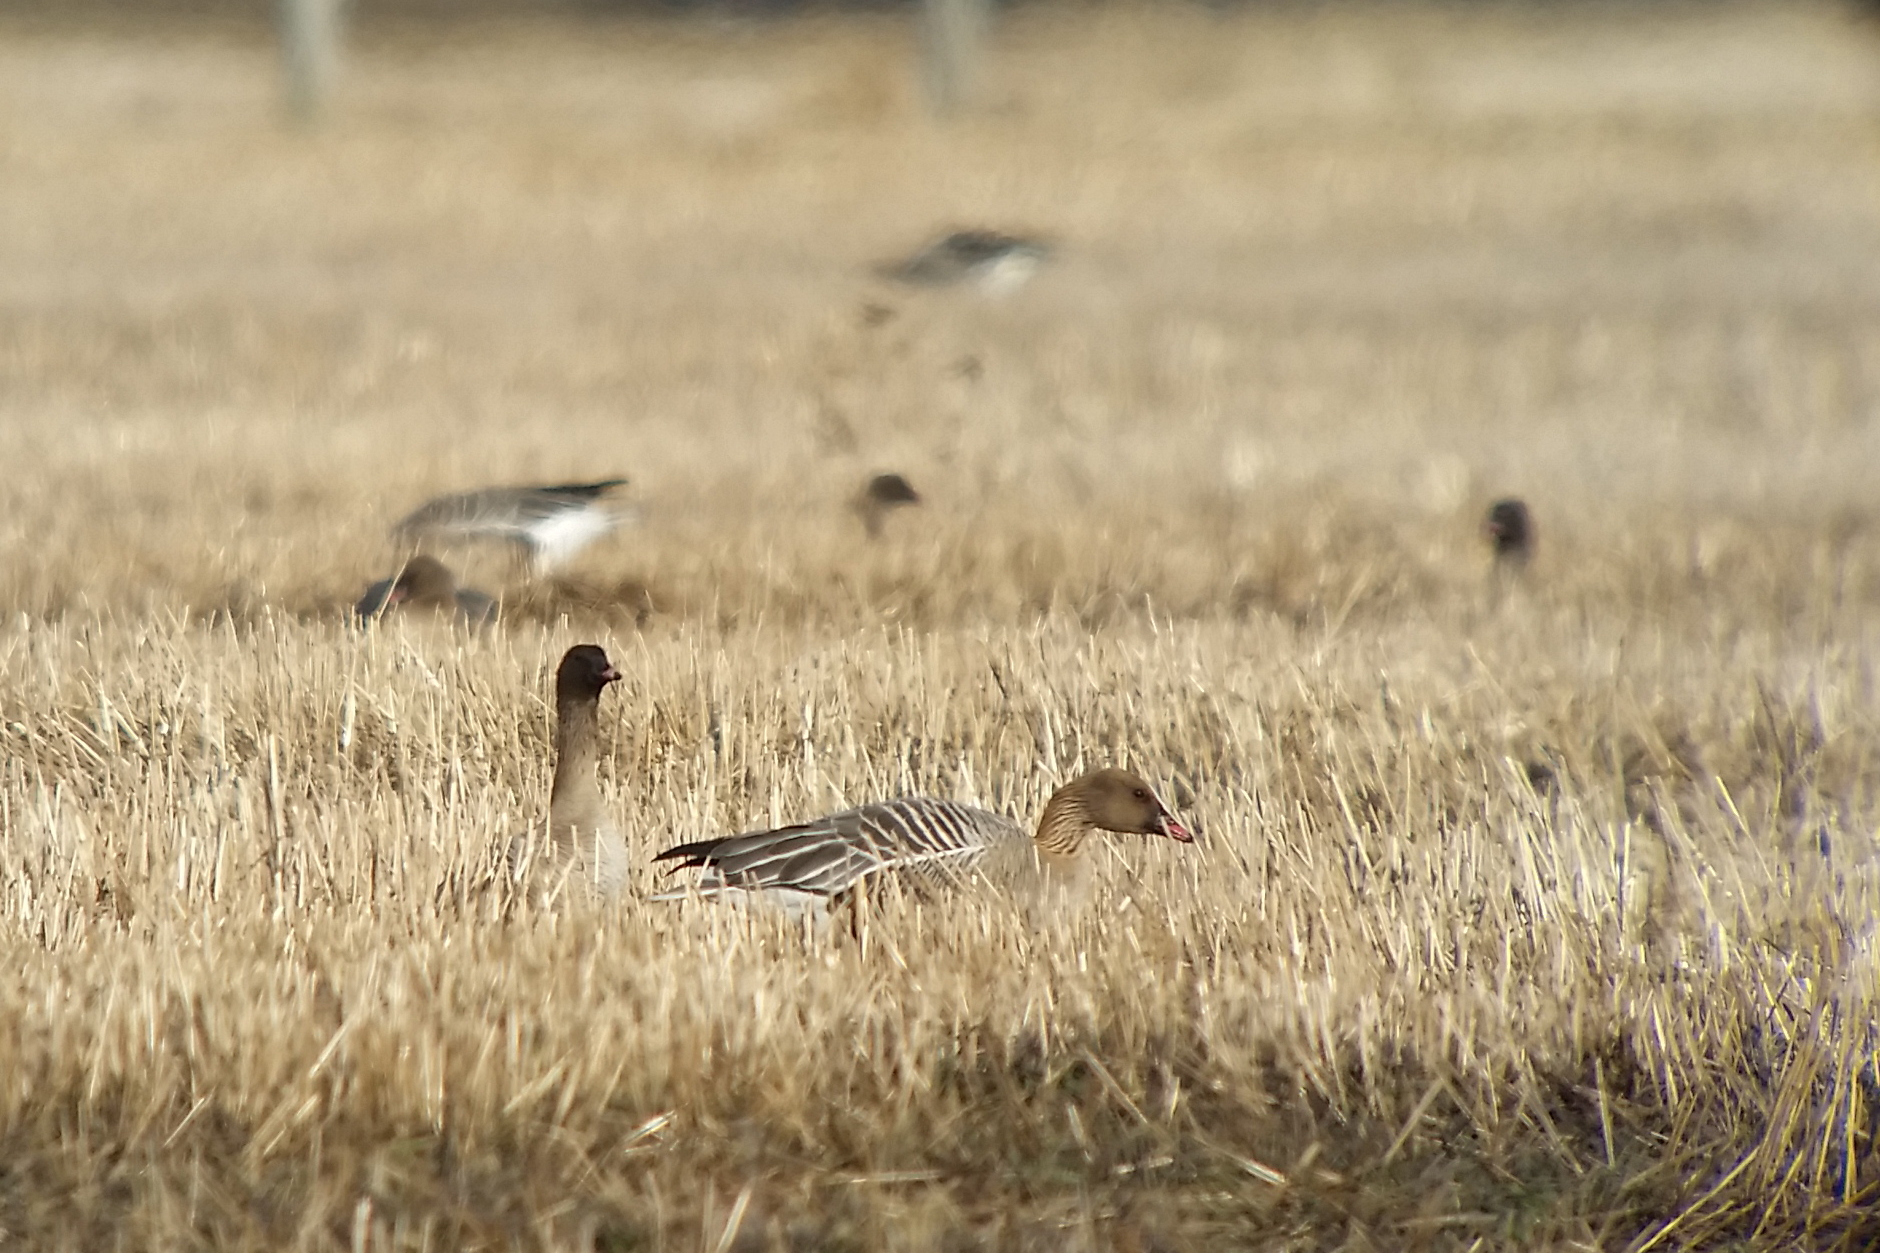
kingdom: Animalia
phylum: Chordata
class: Aves
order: Anseriformes
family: Anatidae
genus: Anser
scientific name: Anser brachyrhynchus
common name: Pink-footed goose
